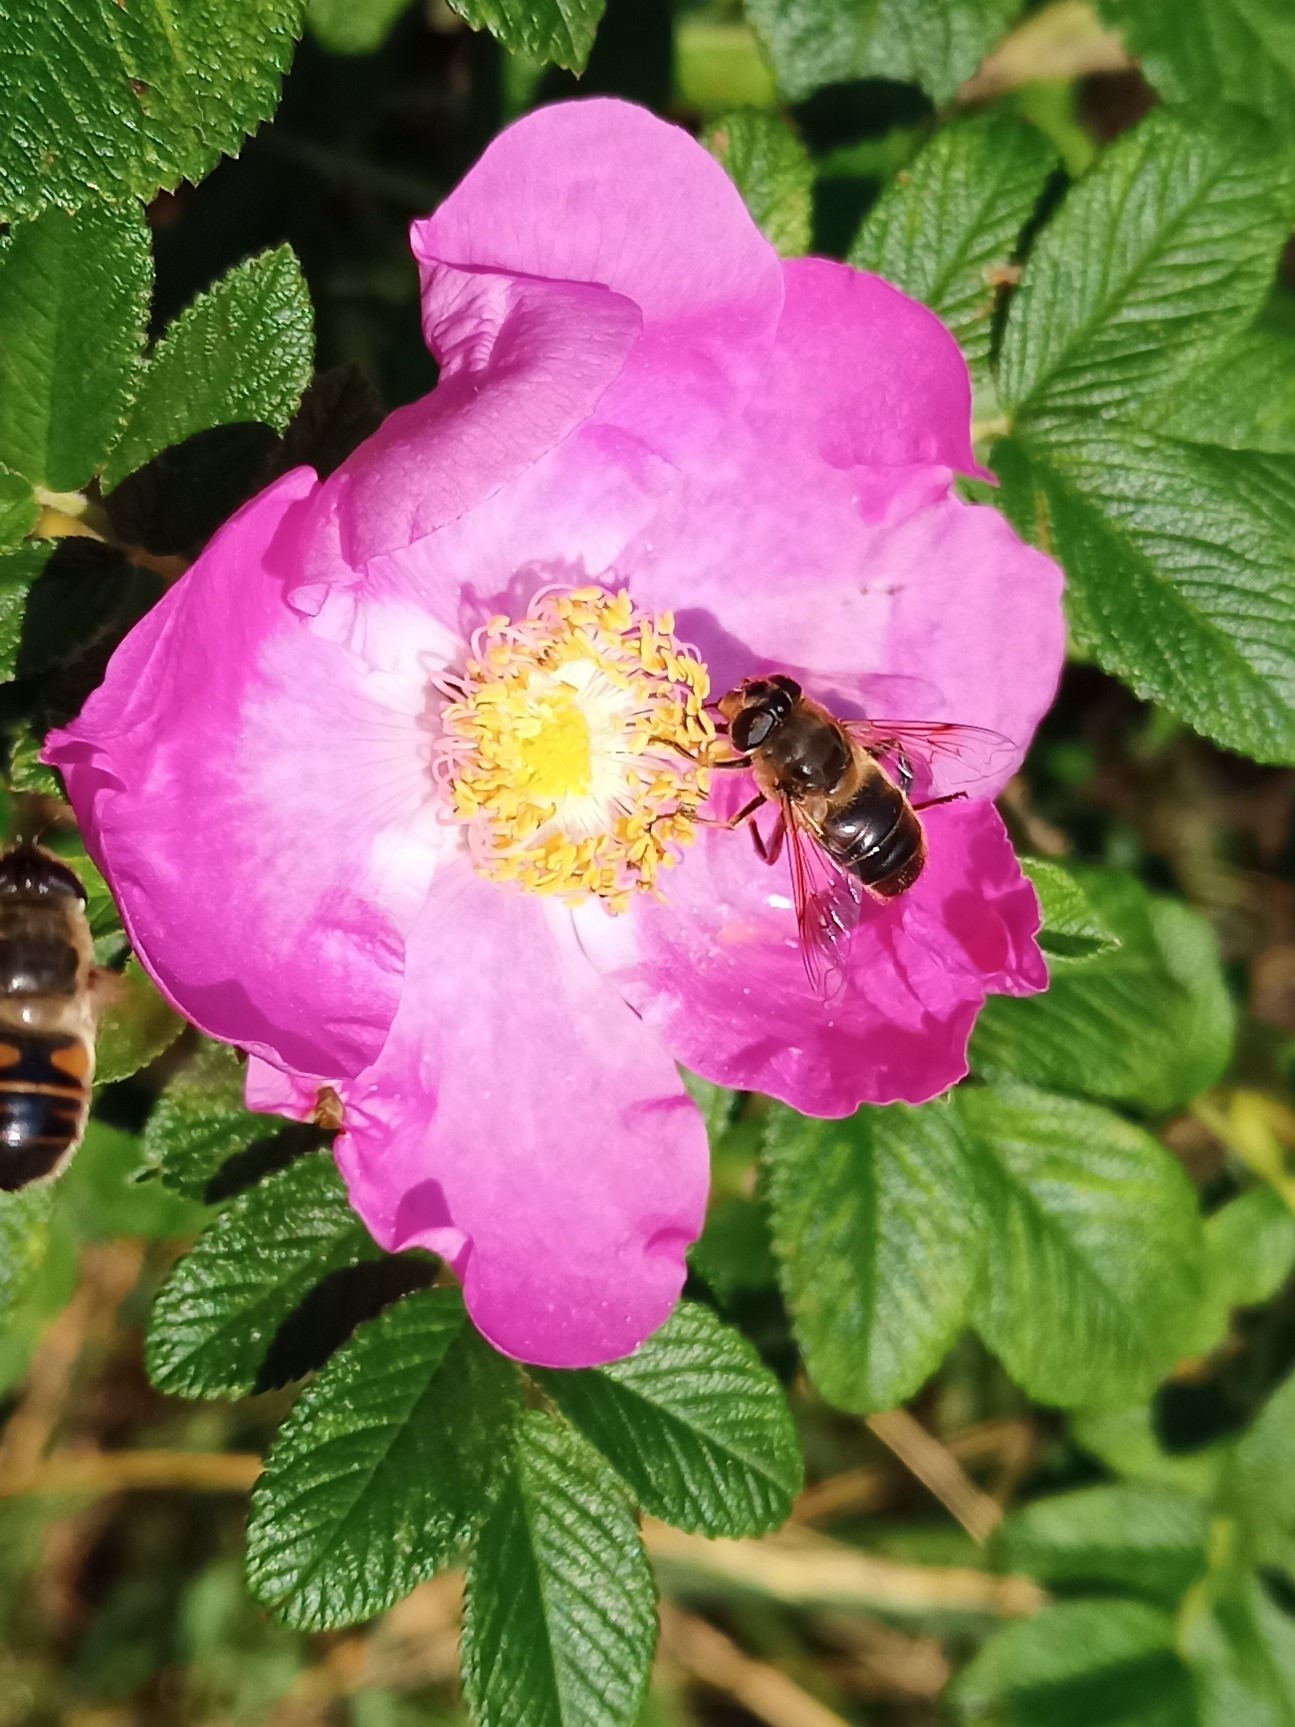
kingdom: Animalia
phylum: Arthropoda
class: Insecta
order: Diptera
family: Syrphidae
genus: Eristalis
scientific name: Eristalis tenax
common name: Drone fly
